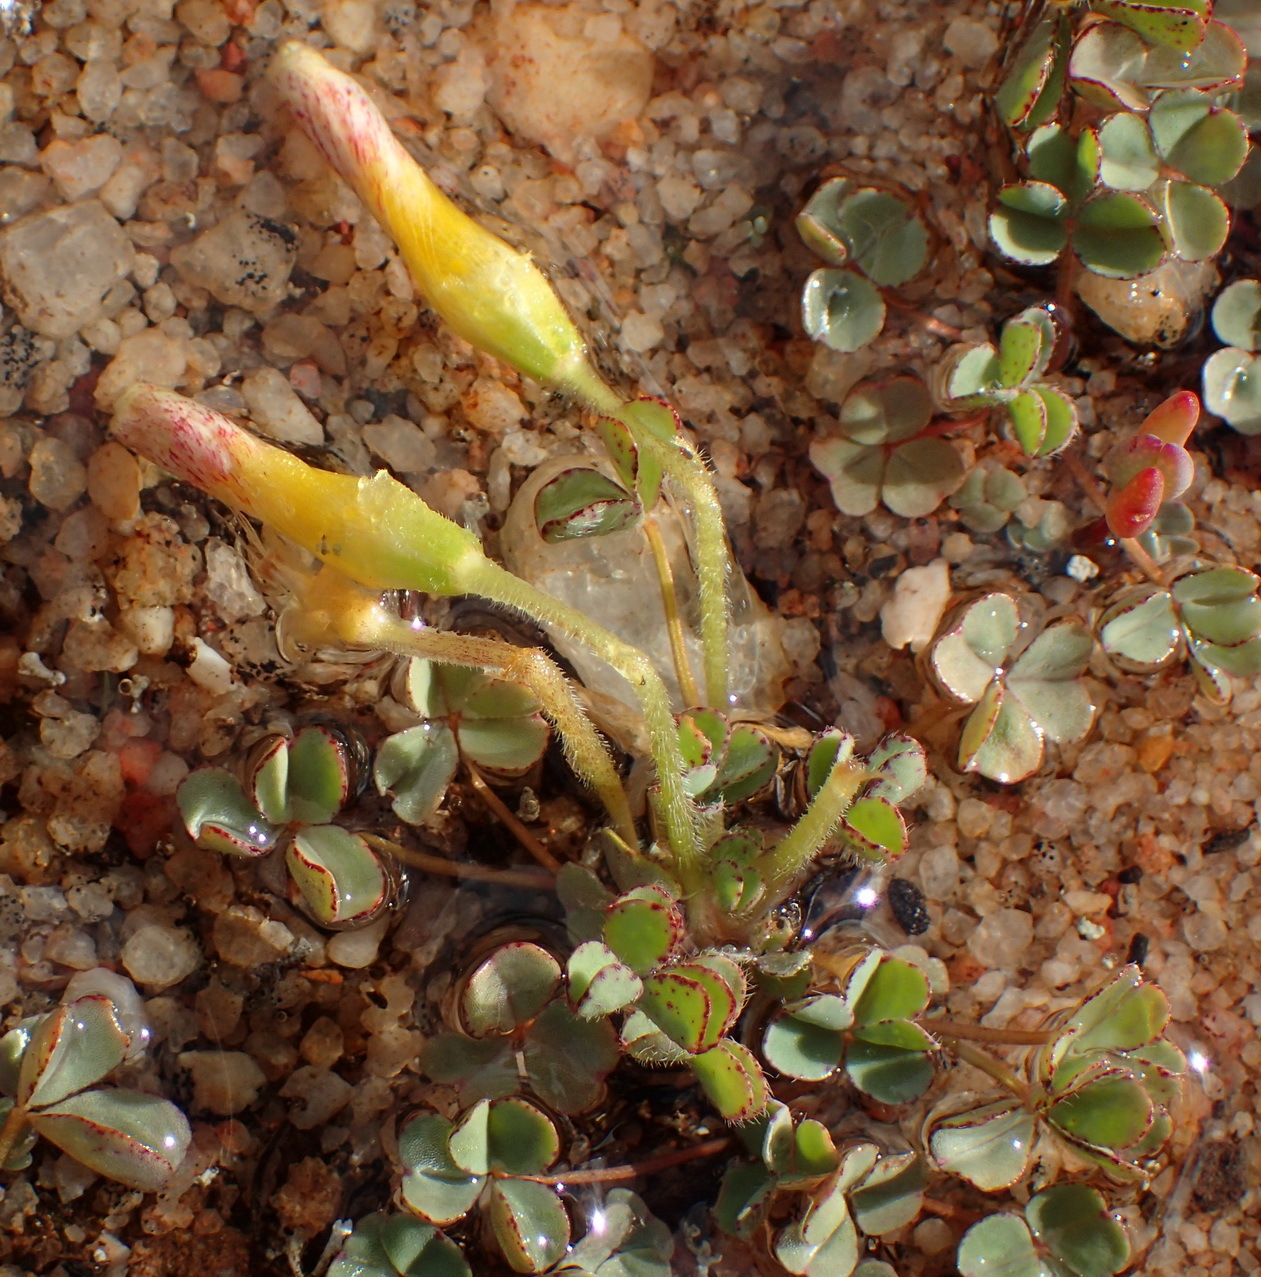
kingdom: Plantae
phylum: Tracheophyta
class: Magnoliopsida
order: Oxalidales
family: Oxalidaceae
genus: Oxalis
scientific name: Oxalis obtusa
